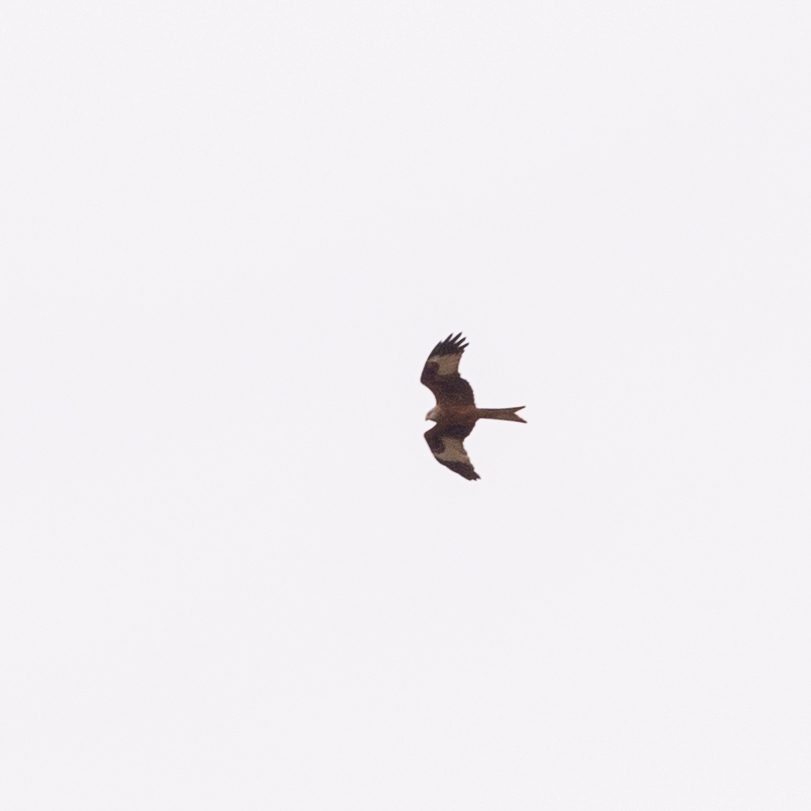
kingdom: Animalia
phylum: Chordata
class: Aves
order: Accipitriformes
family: Accipitridae
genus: Milvus
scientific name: Milvus milvus
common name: Red kite
